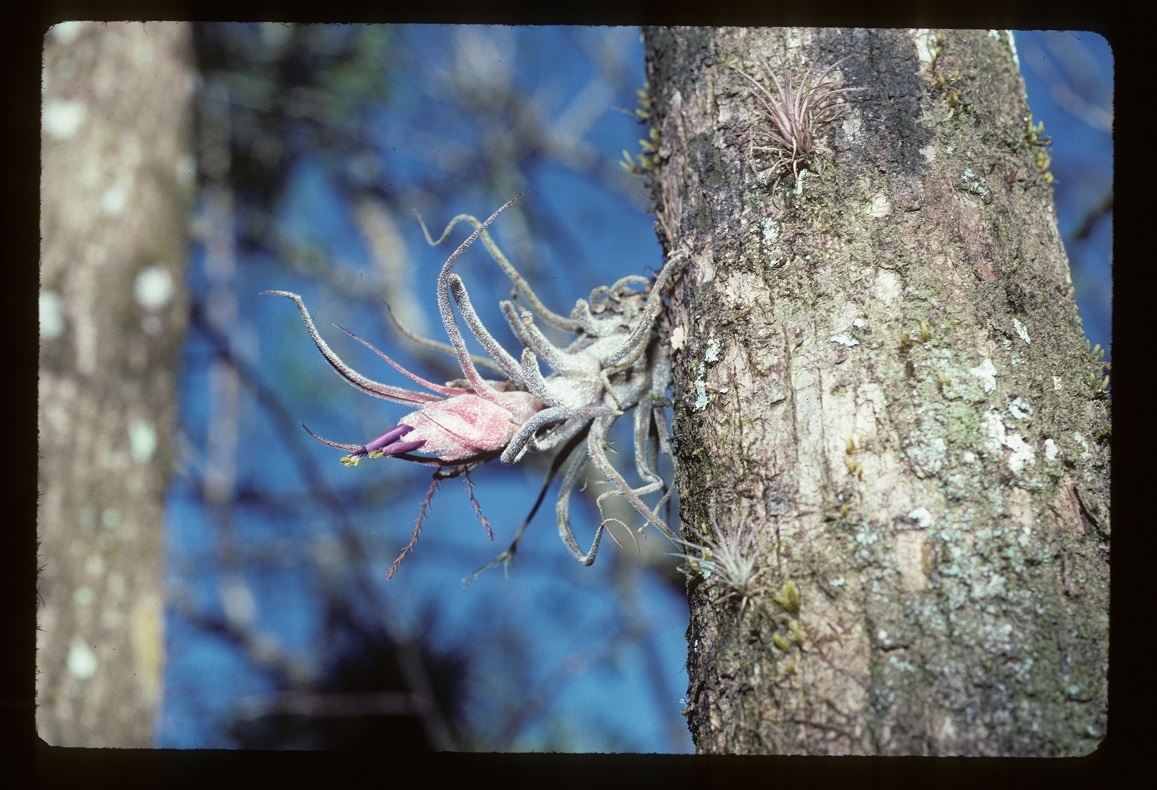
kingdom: Plantae
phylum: Tracheophyta
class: Liliopsida
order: Poales
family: Bromeliaceae
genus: Tillandsia
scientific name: Tillandsia pruinosa
